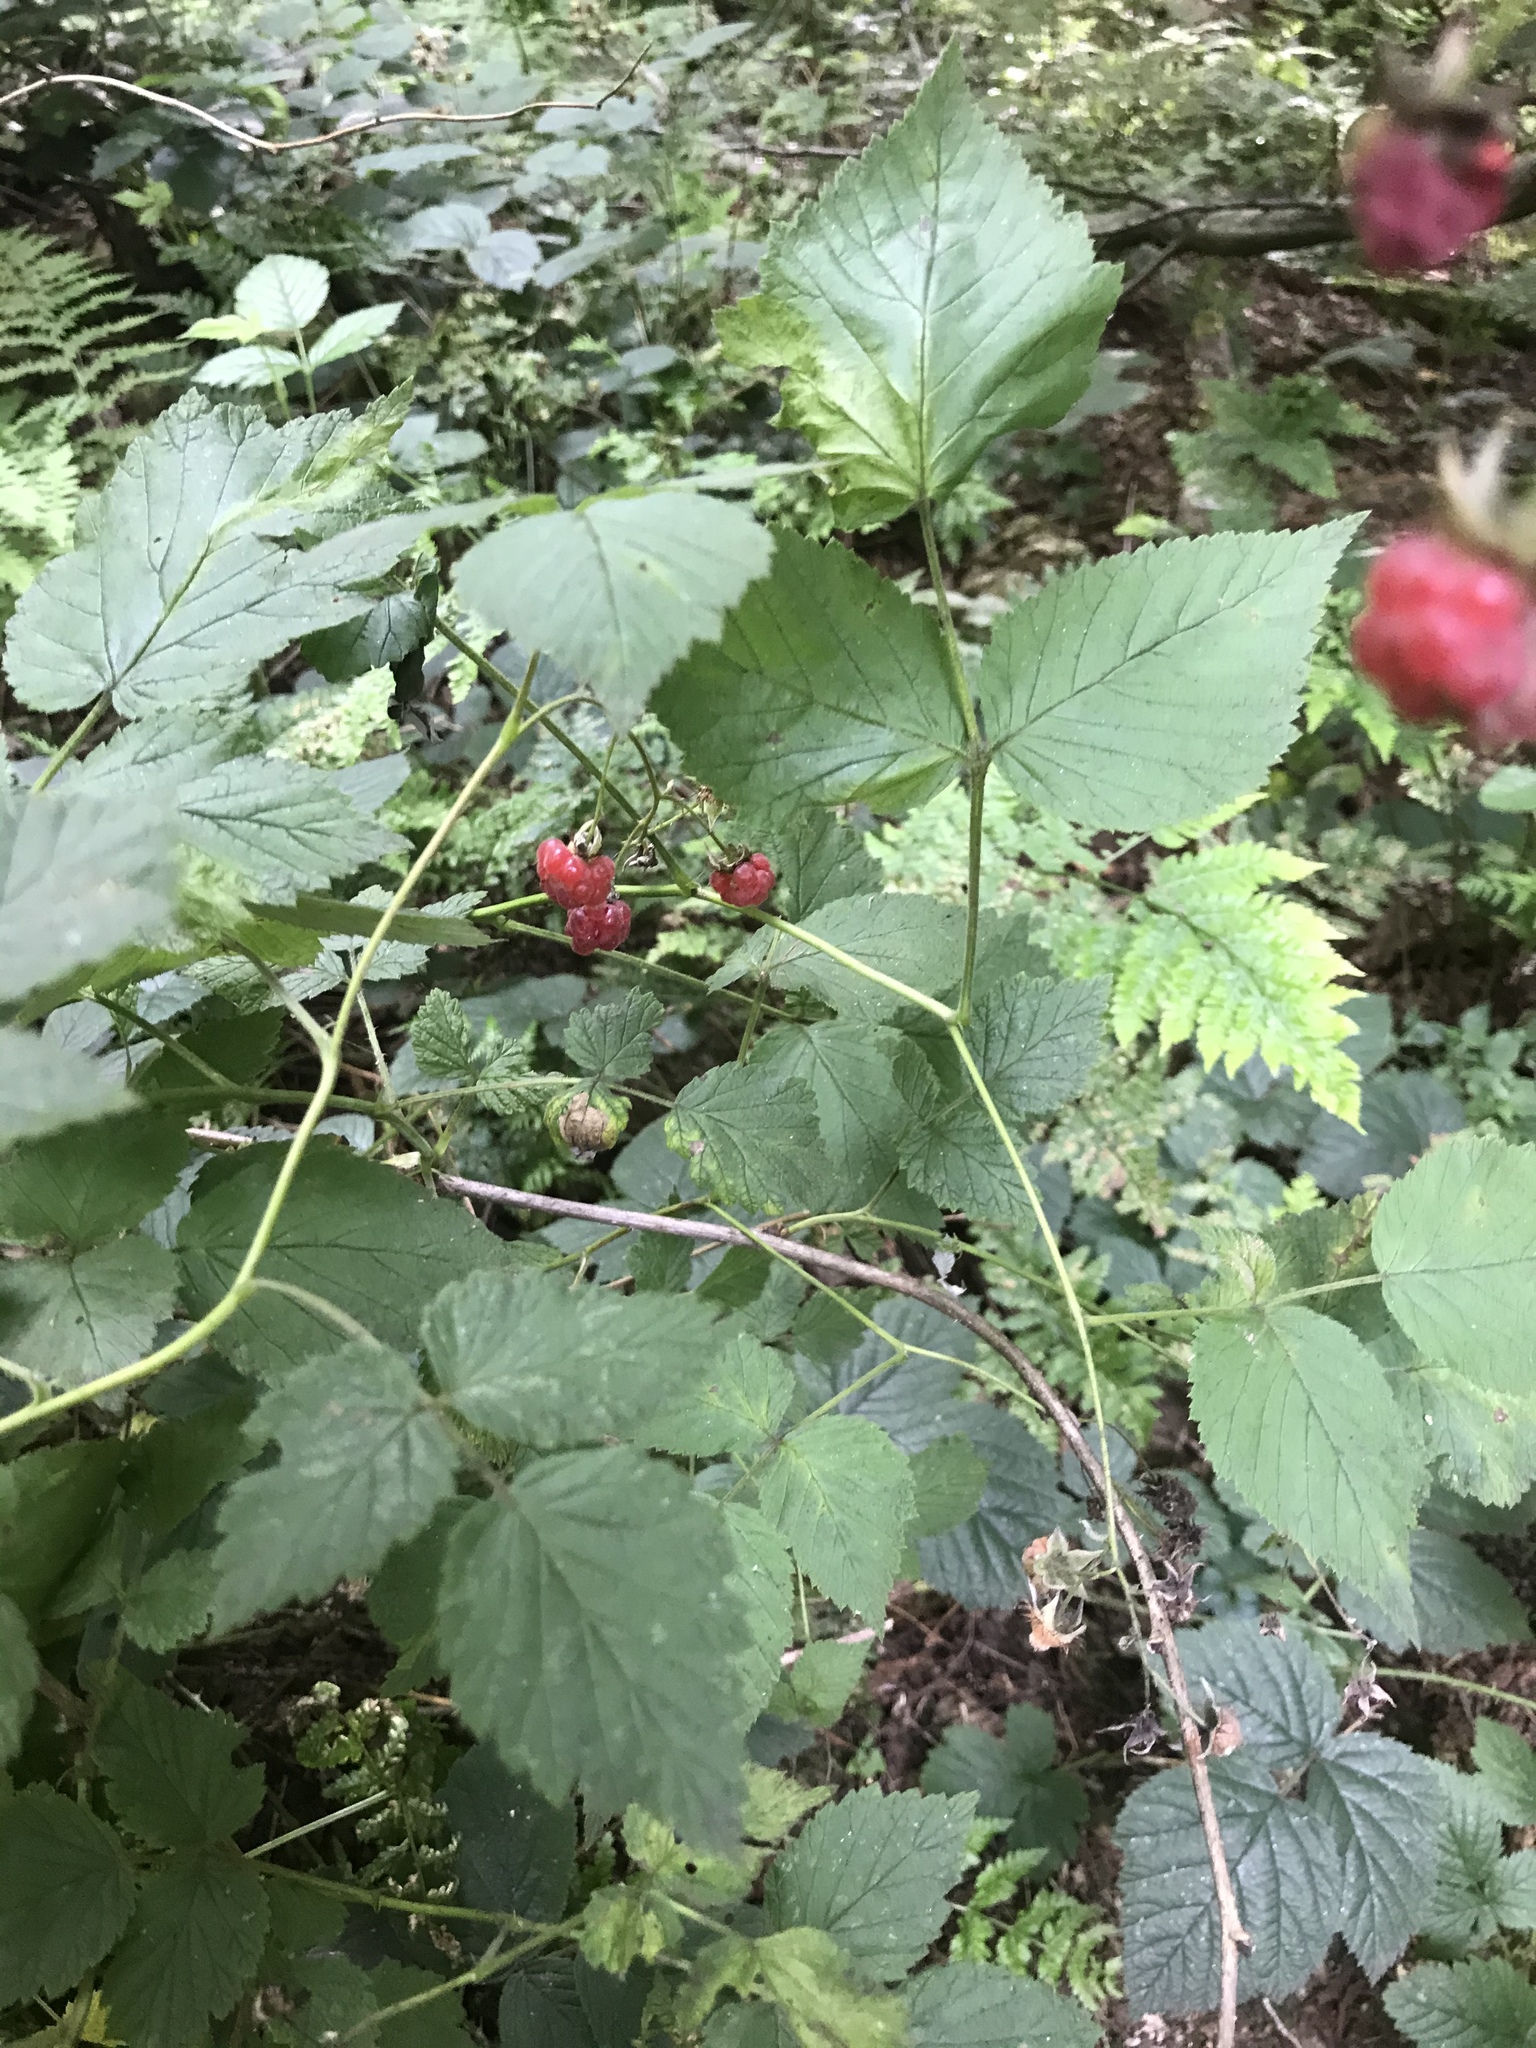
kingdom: Plantae
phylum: Tracheophyta
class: Magnoliopsida
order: Rosales
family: Rosaceae
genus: Rubus
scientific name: Rubus idaeus
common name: Raspberry
